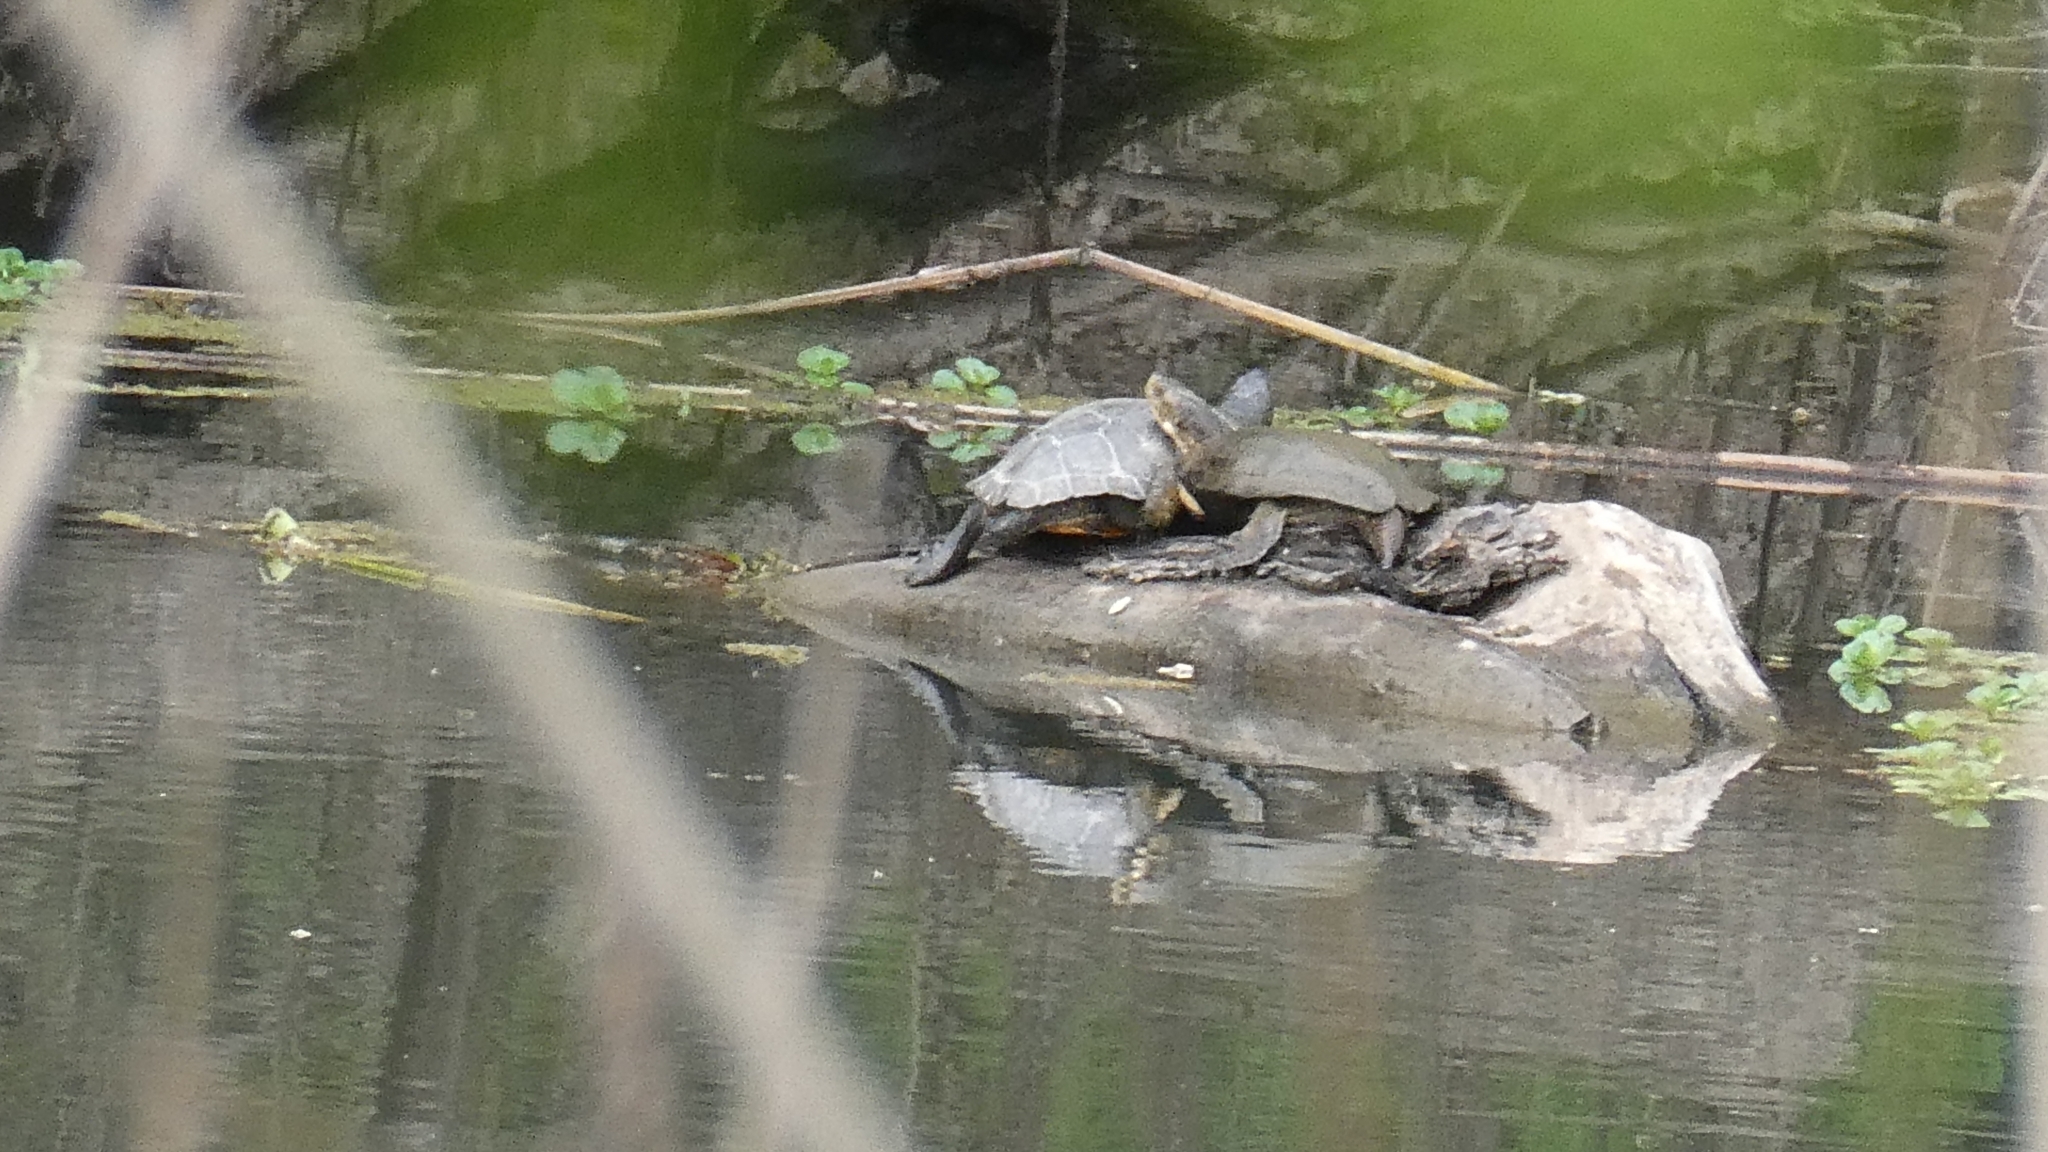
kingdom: Animalia
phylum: Chordata
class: Testudines
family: Emydidae
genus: Trachemys
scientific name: Trachemys scripta
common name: Slider
